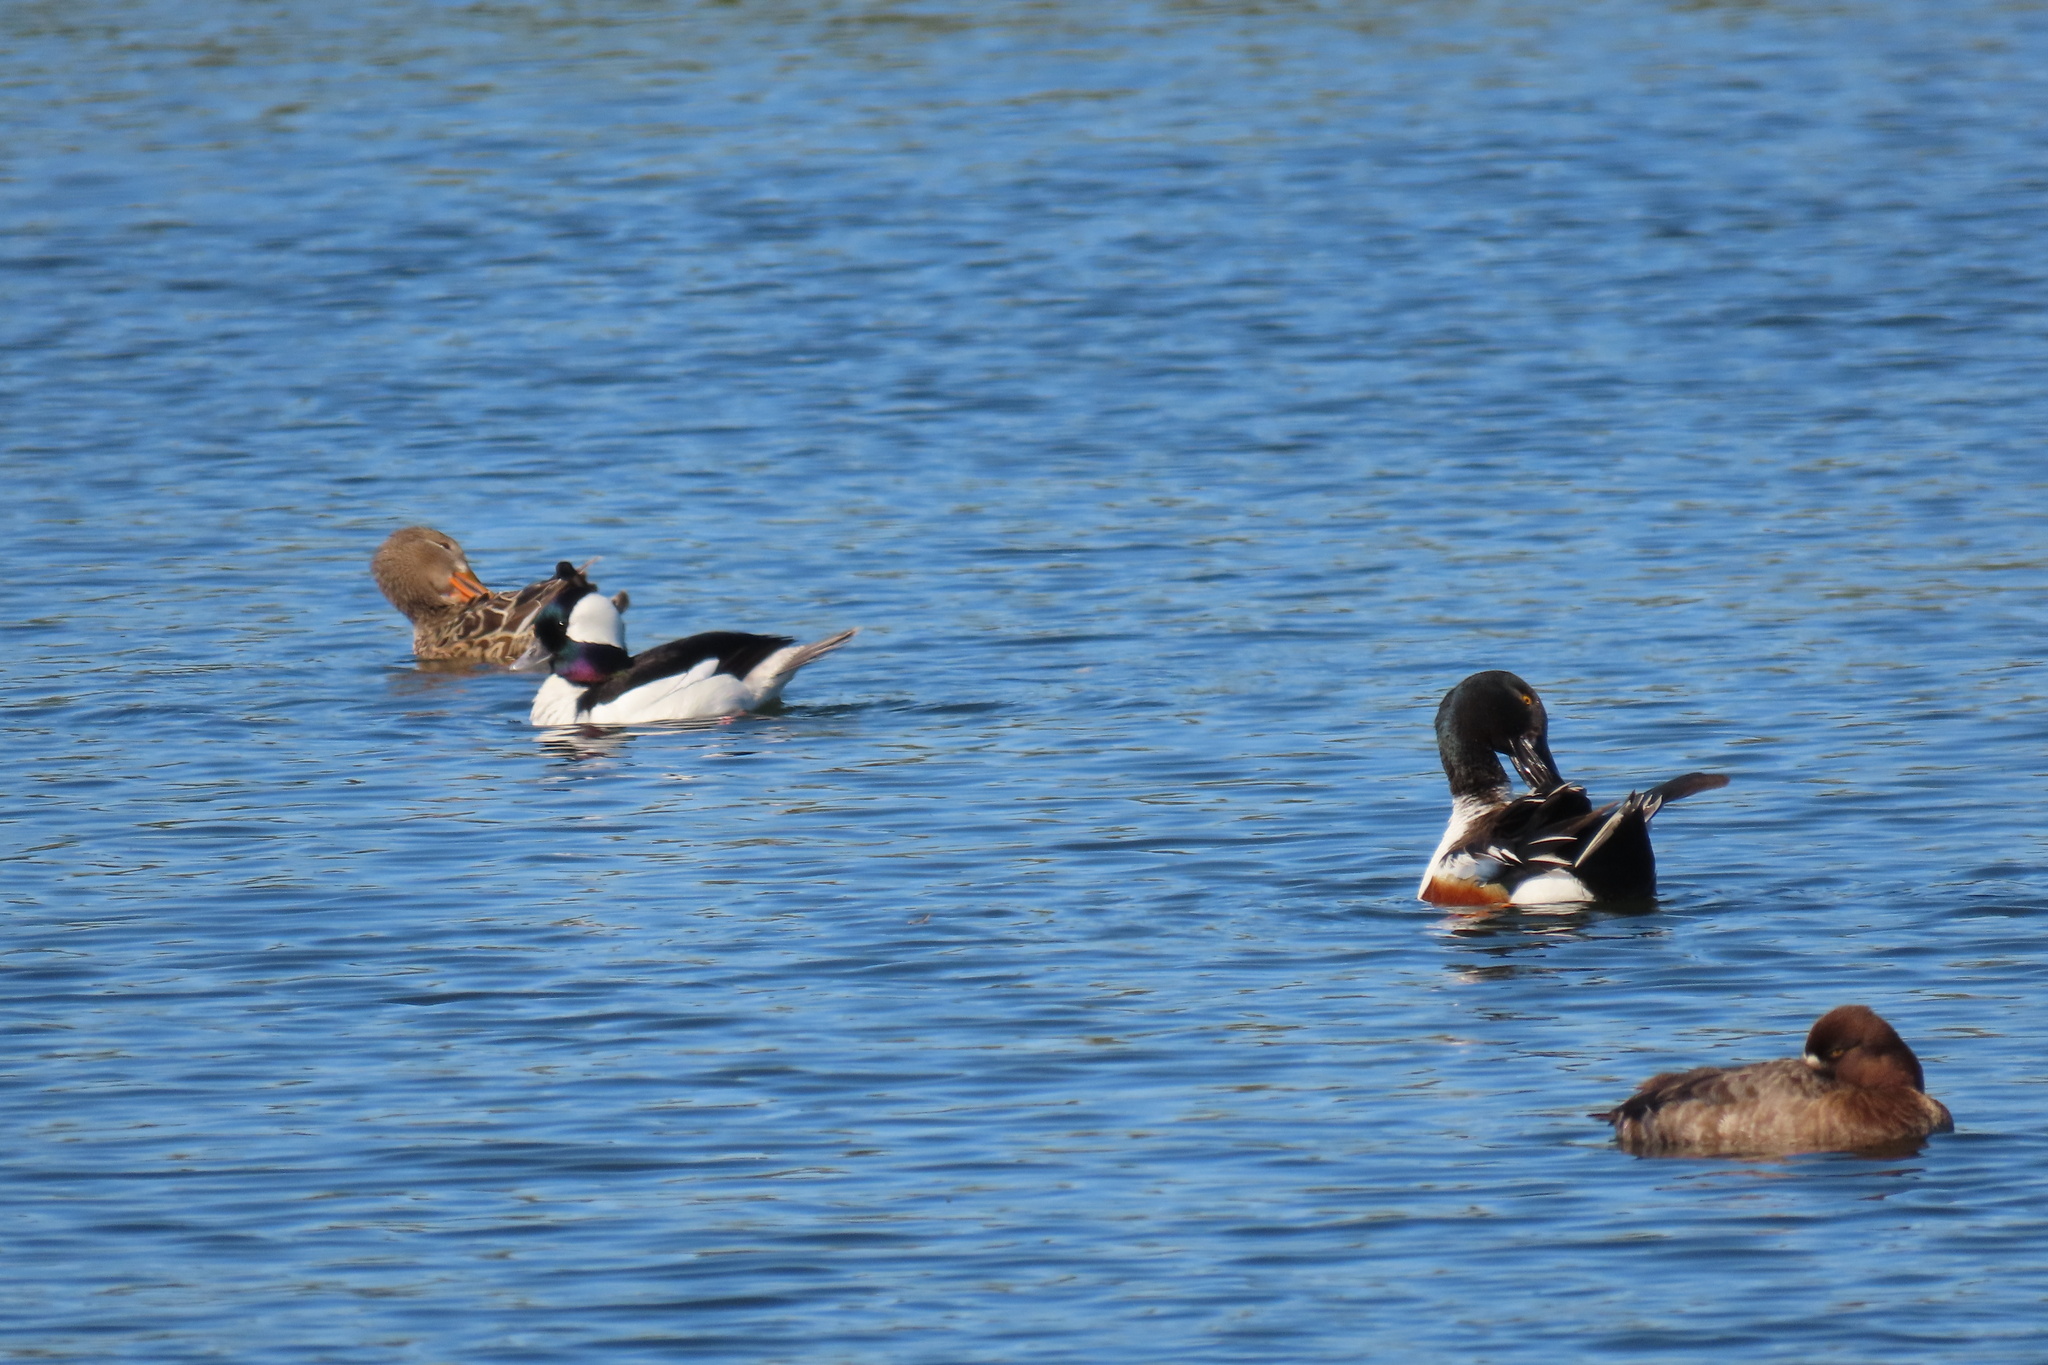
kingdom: Animalia
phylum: Chordata
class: Aves
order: Anseriformes
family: Anatidae
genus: Spatula
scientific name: Spatula clypeata
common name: Northern shoveler
